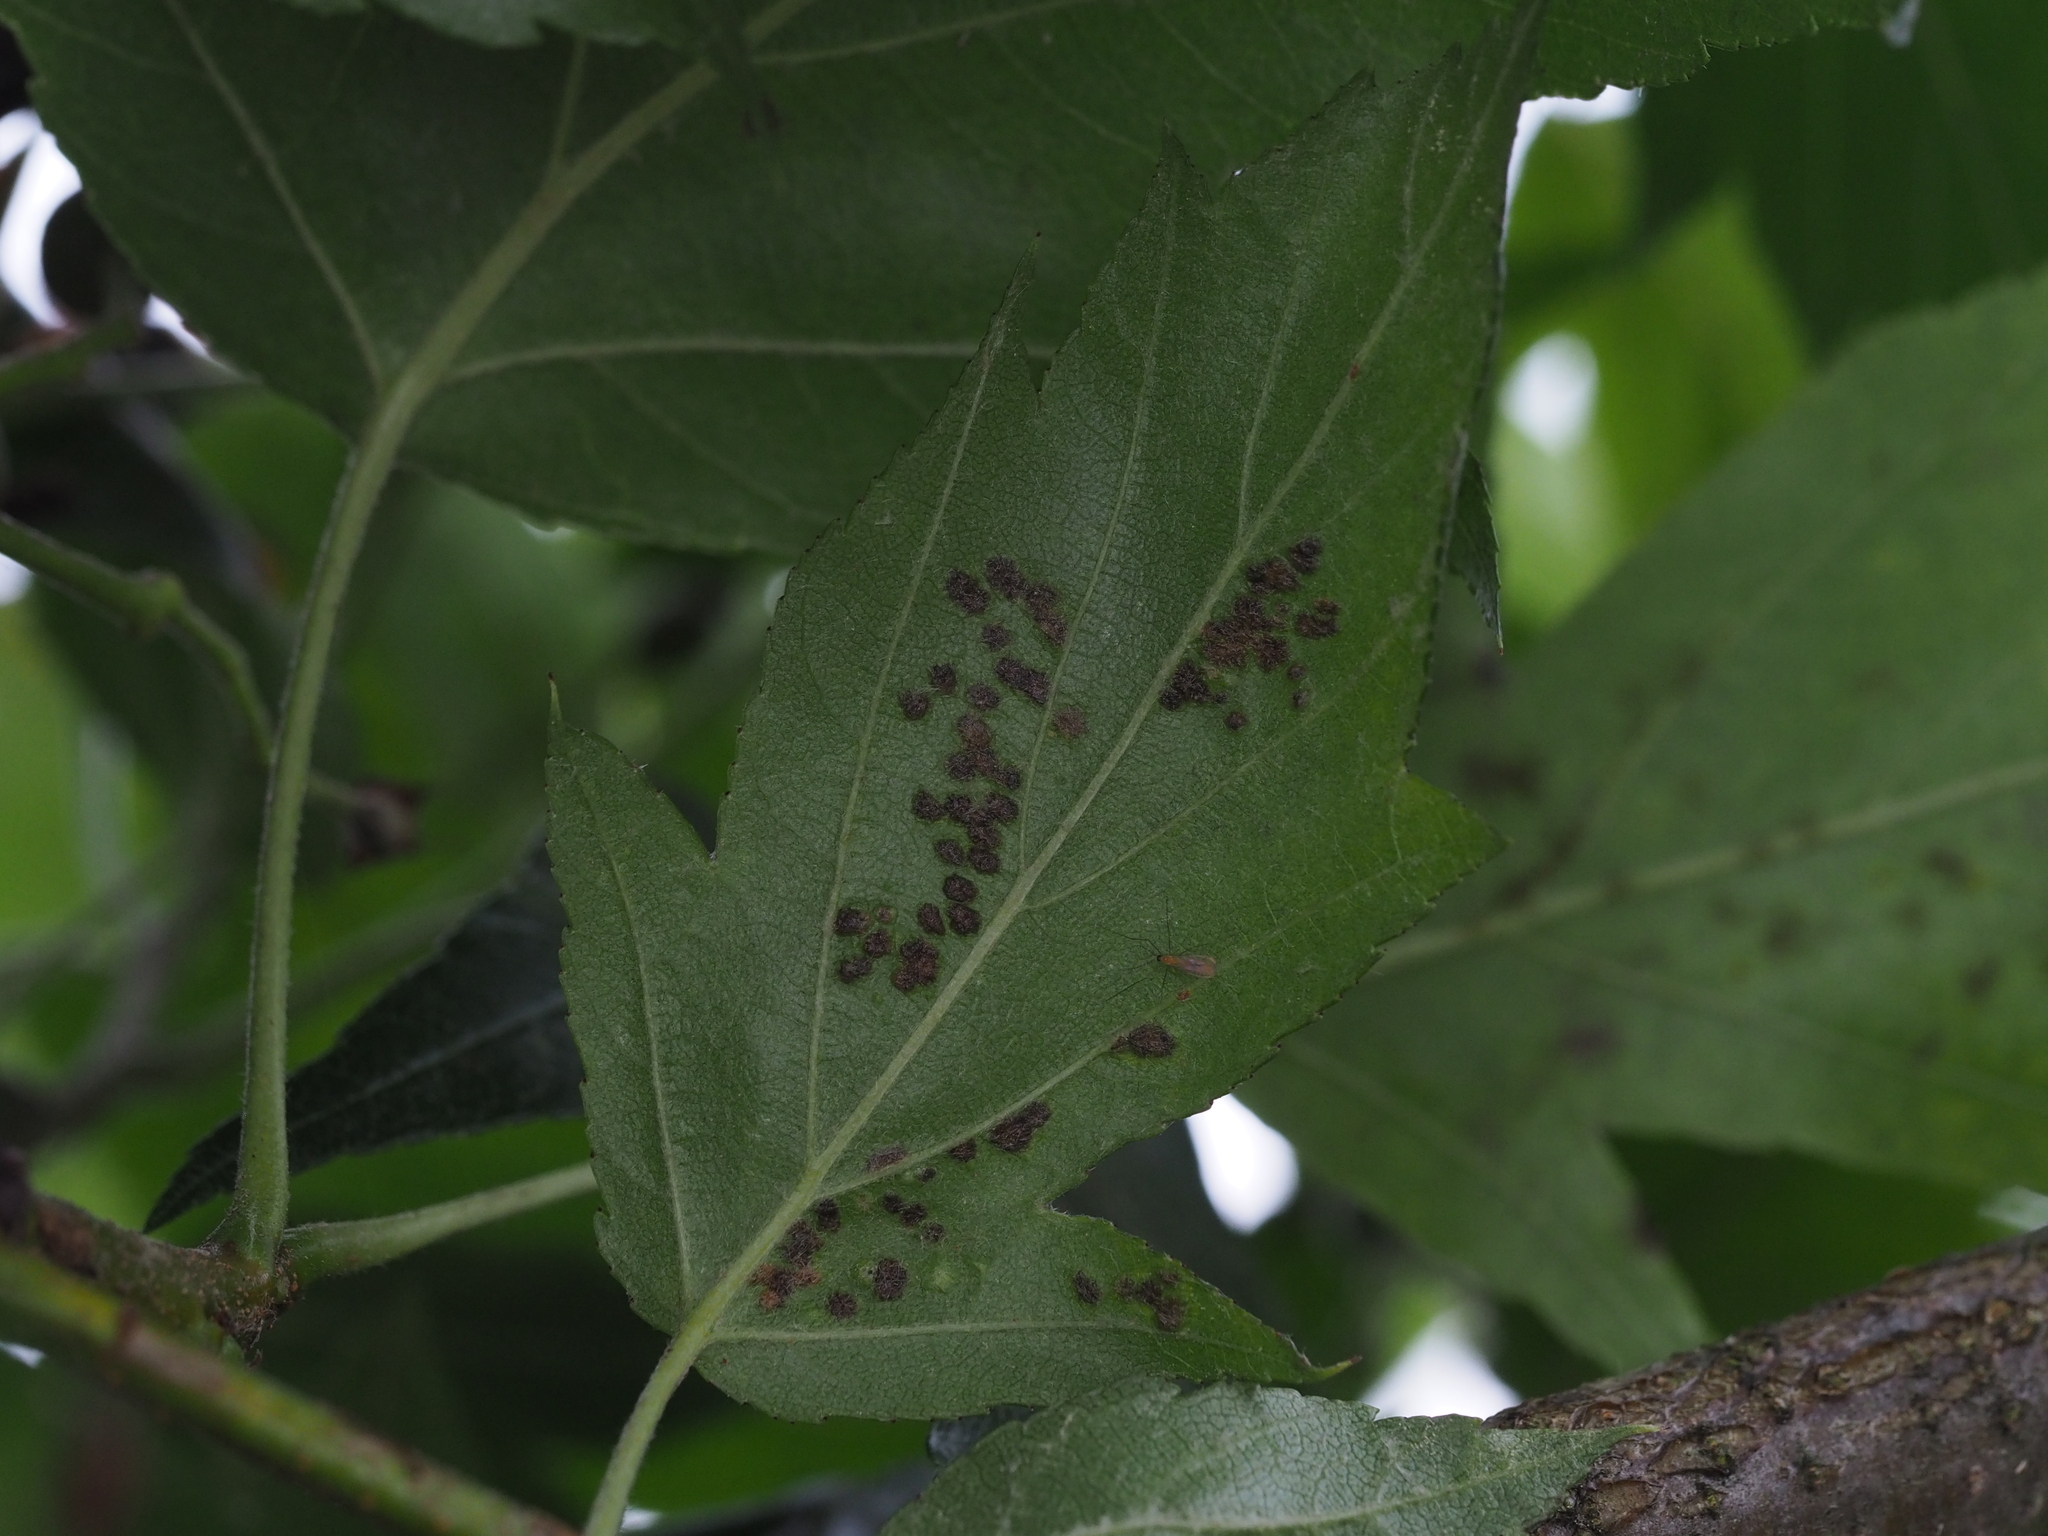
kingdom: Animalia
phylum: Arthropoda
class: Arachnida
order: Trombidiformes
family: Eriophyidae
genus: Eriophyes
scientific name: Eriophyes pyri
